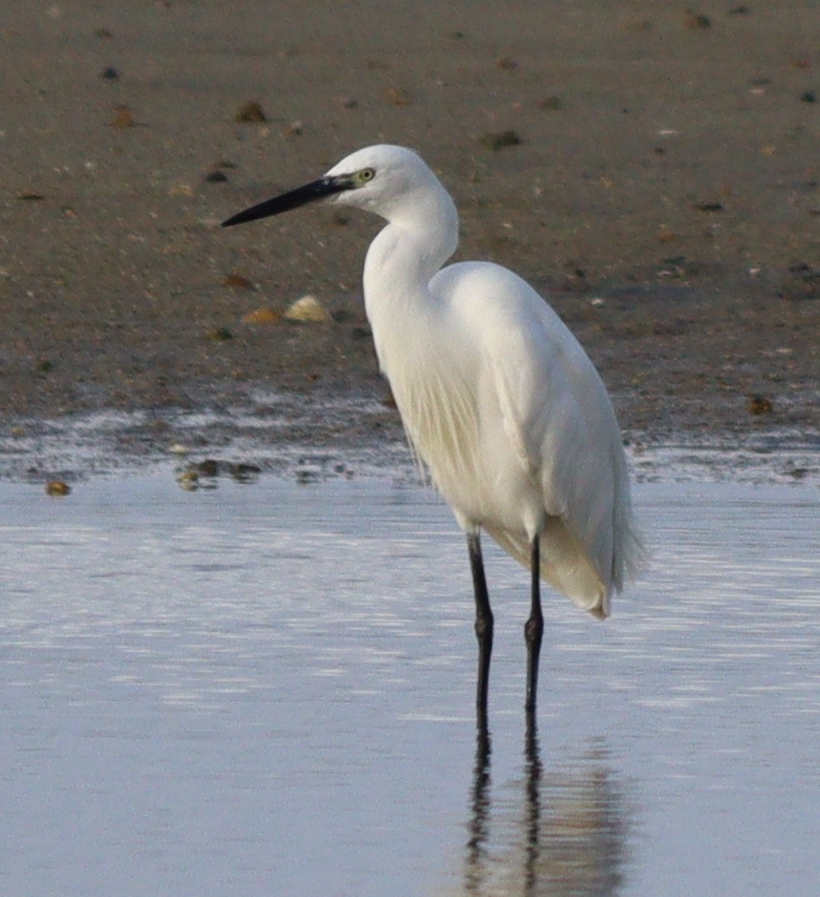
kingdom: Animalia
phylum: Chordata
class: Aves
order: Pelecaniformes
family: Ardeidae
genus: Egretta
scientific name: Egretta garzetta
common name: Little egret
